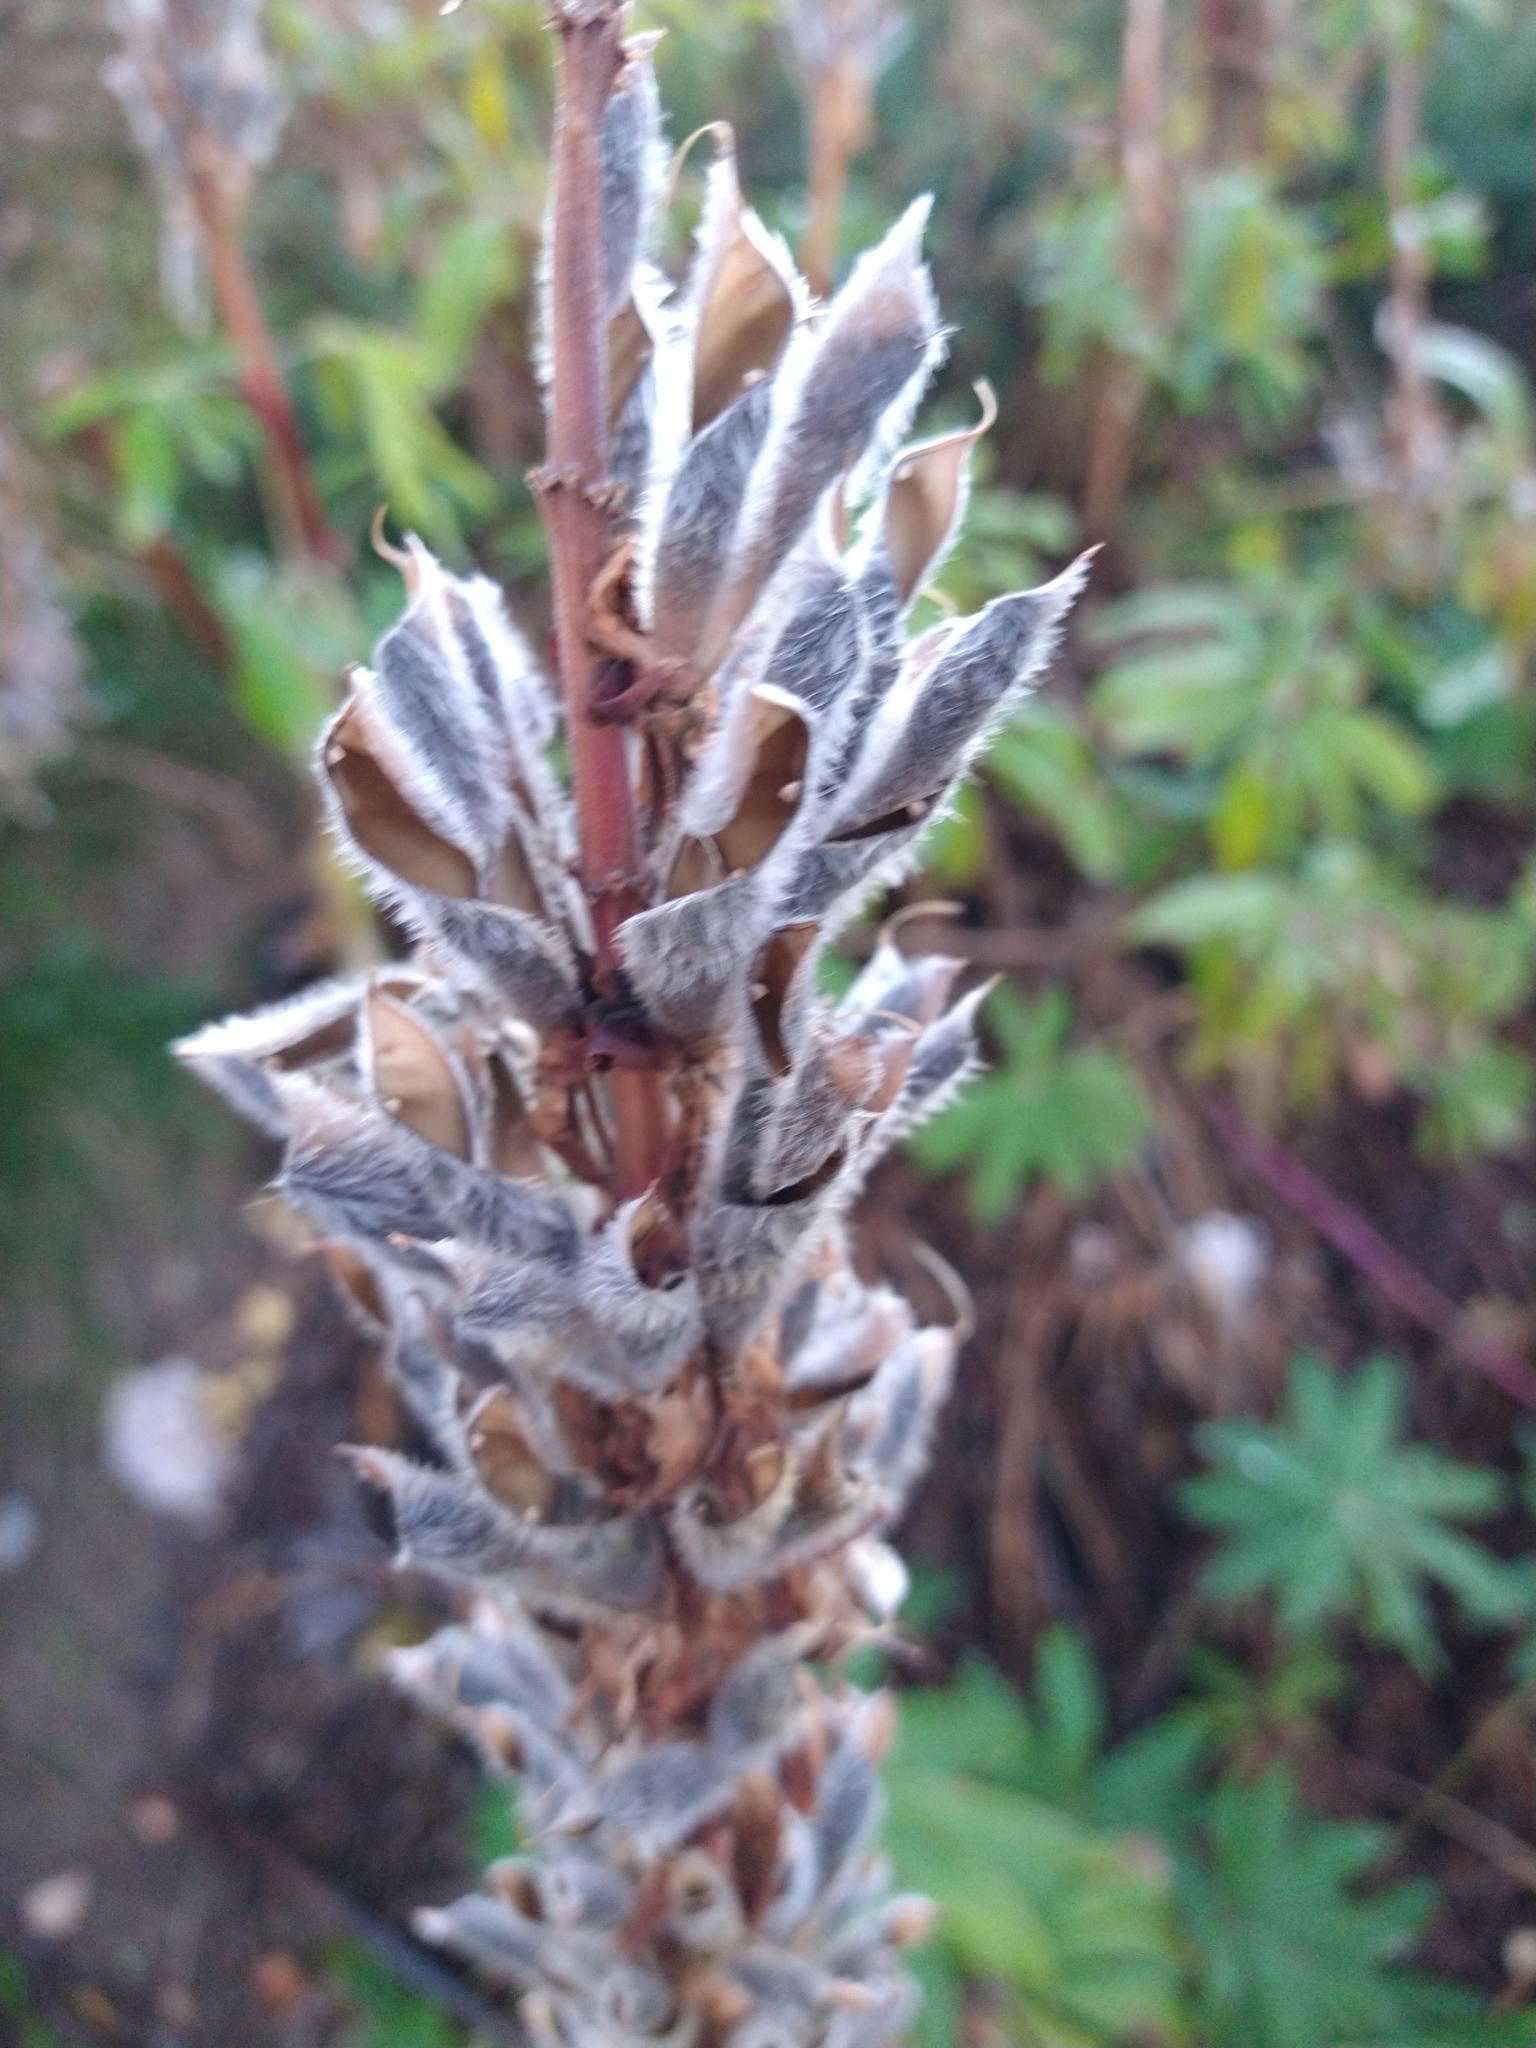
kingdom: Plantae
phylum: Tracheophyta
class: Magnoliopsida
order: Fabales
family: Fabaceae
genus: Lupinus
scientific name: Lupinus polyphyllus
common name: Garden lupin
